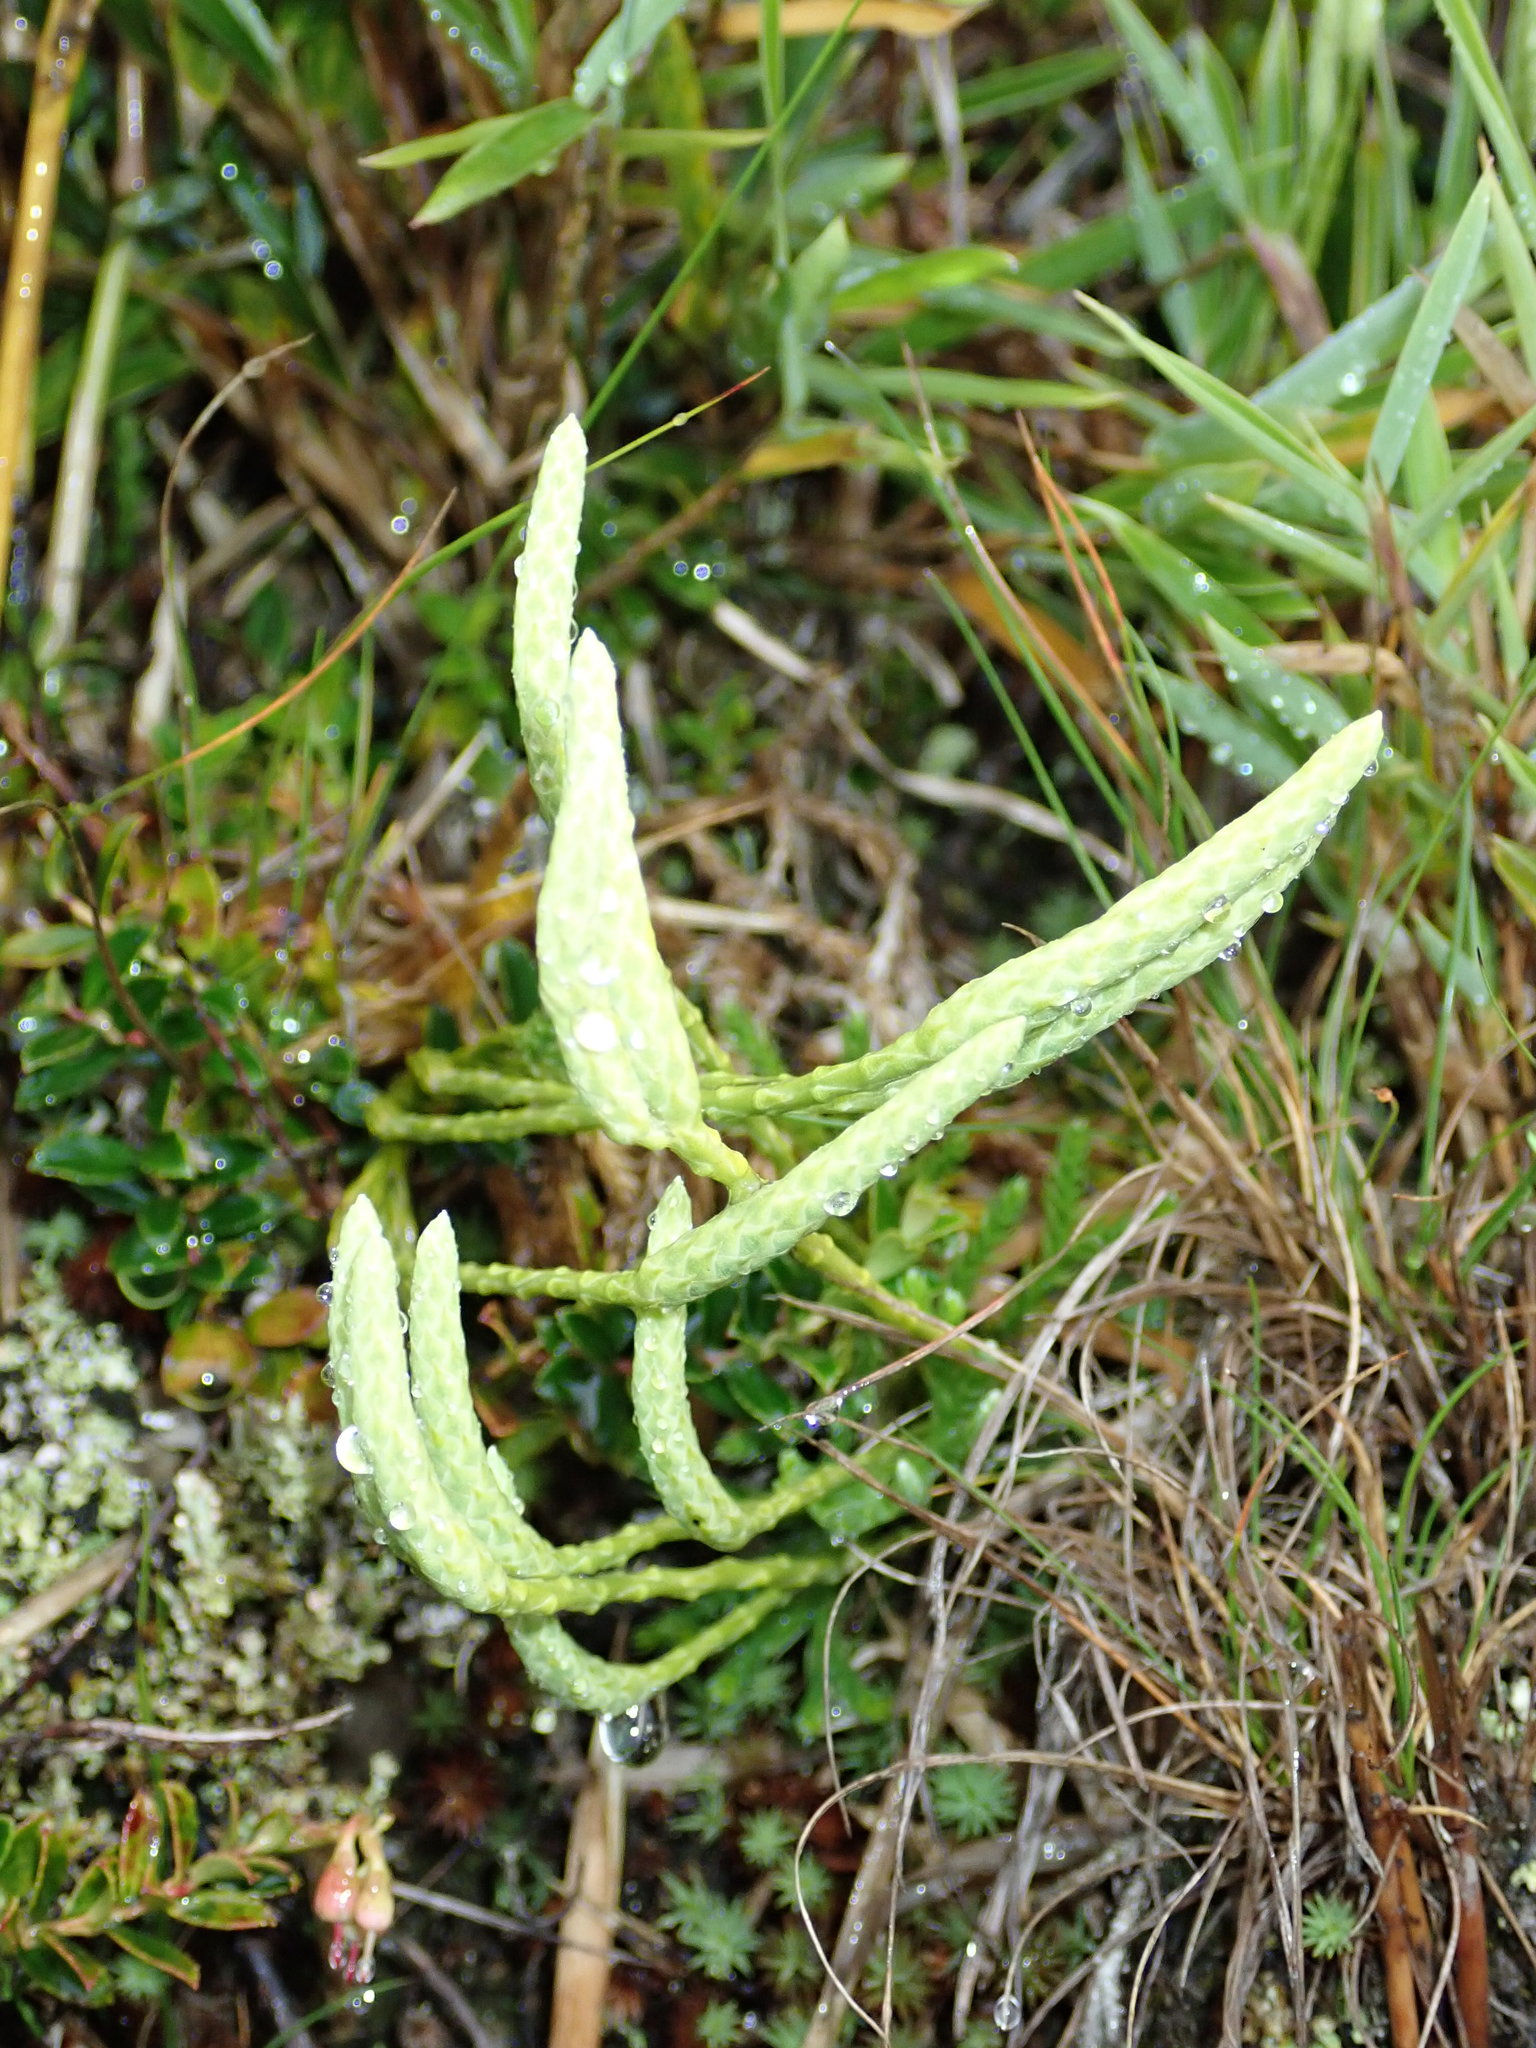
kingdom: Plantae
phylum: Tracheophyta
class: Lycopodiopsida
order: Lycopodiales
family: Lycopodiaceae
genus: Diphasiastrum
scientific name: Diphasiastrum veitchii
